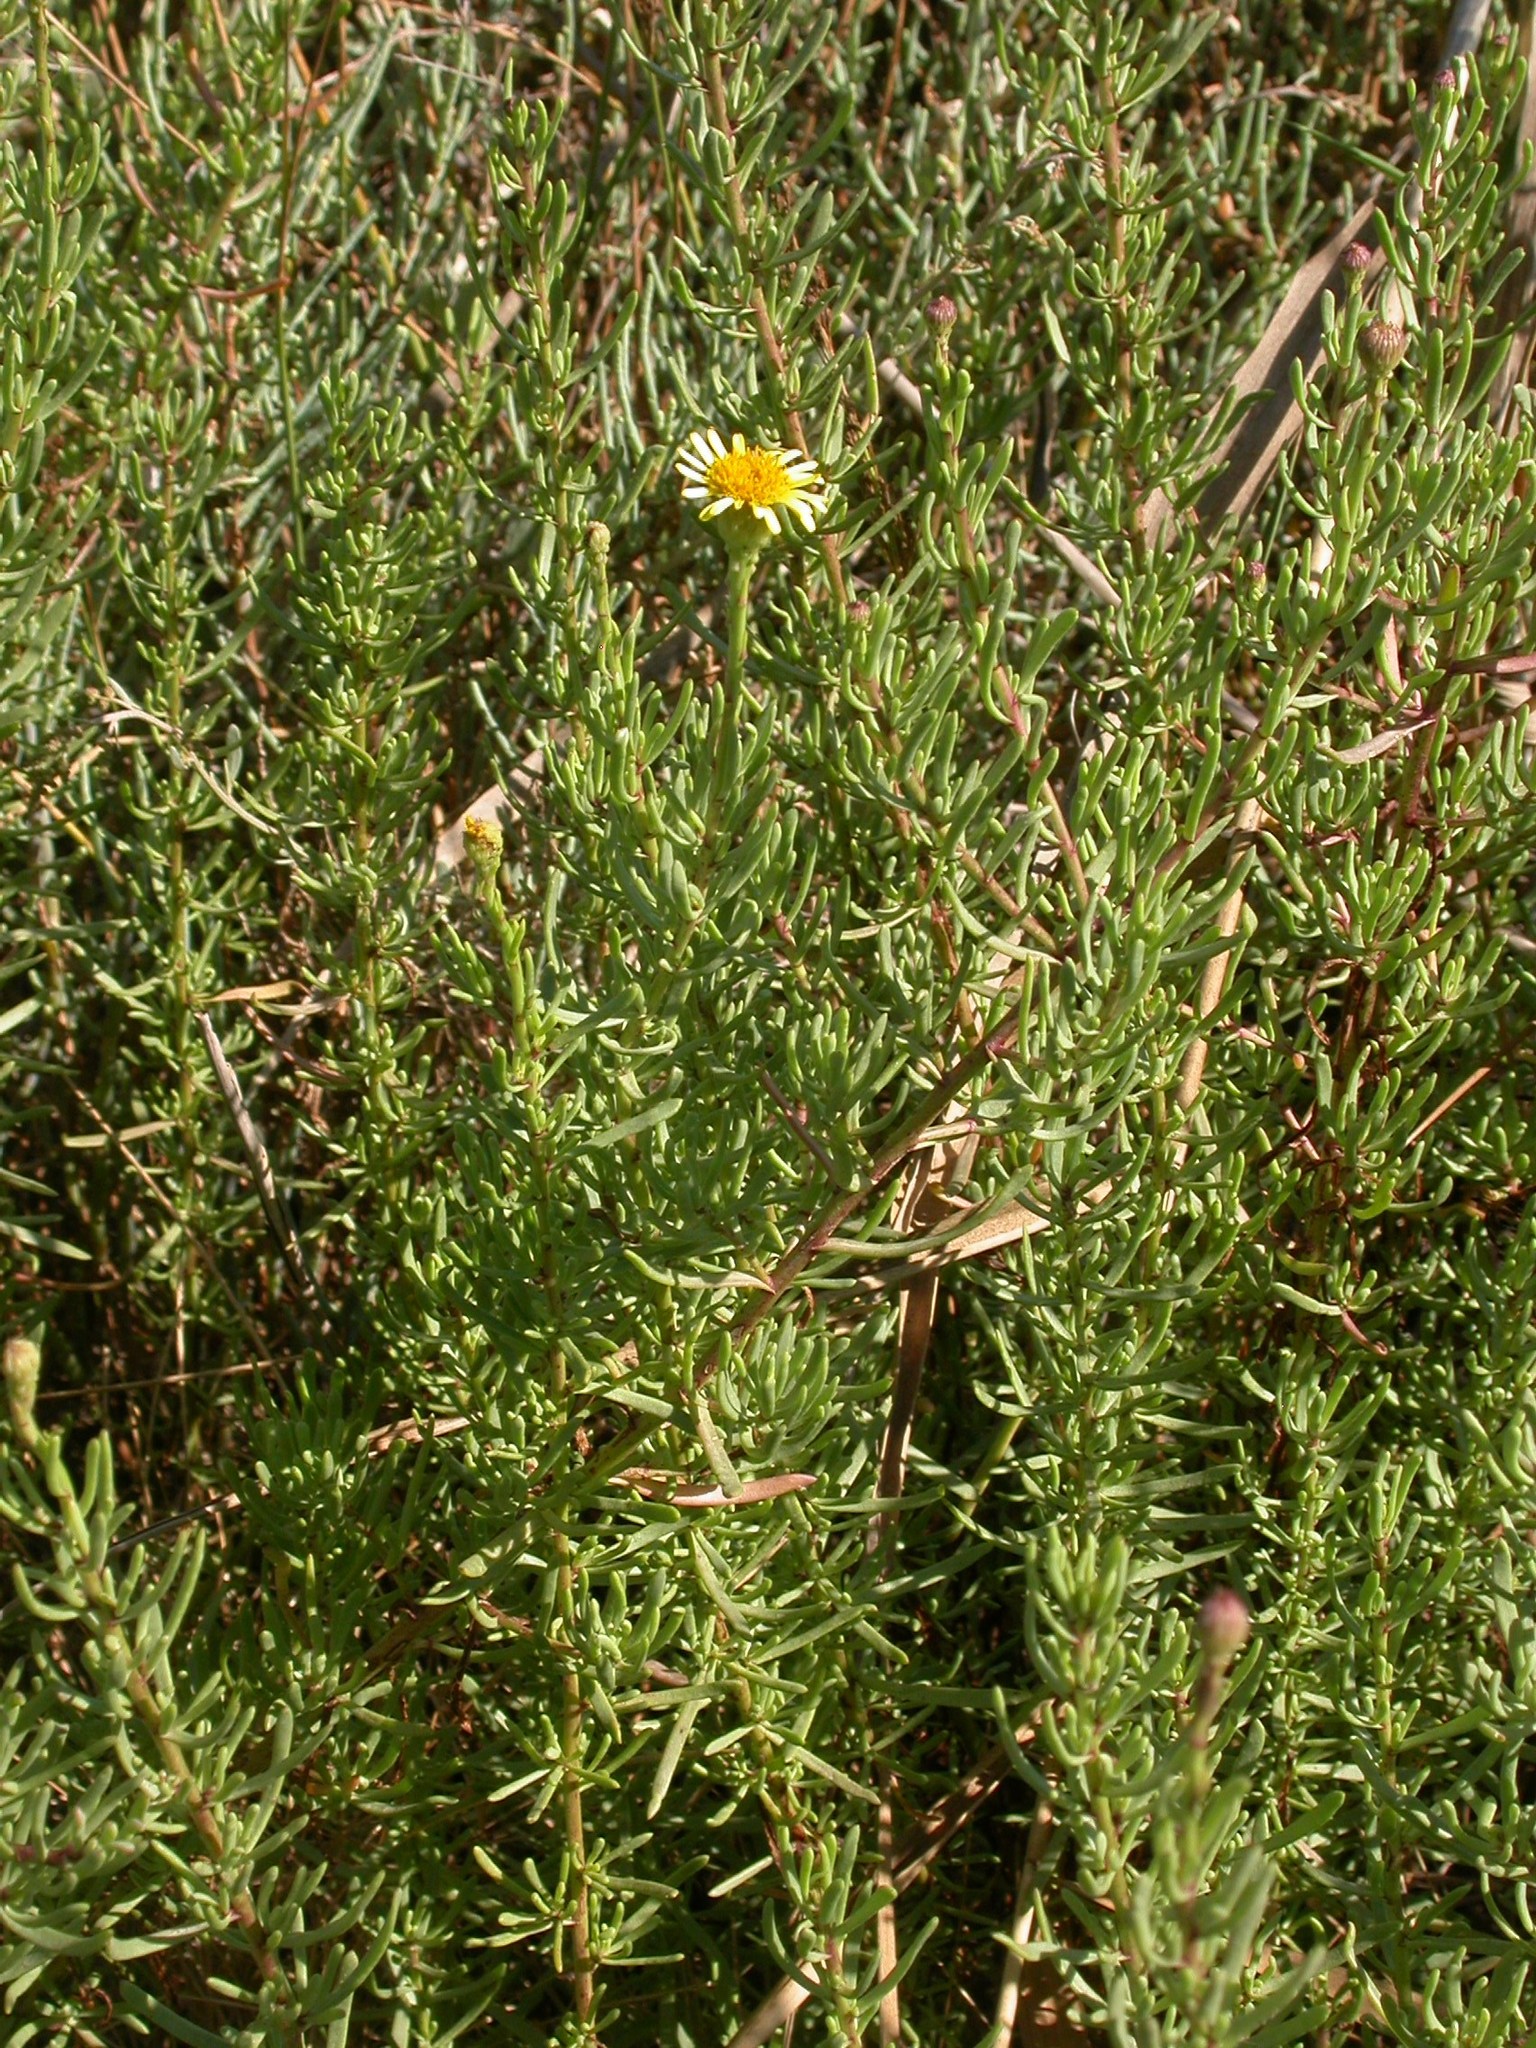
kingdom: Plantae
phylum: Tracheophyta
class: Magnoliopsida
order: Asterales
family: Asteraceae
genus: Limbarda
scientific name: Limbarda crithmoides
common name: Golden samphire
